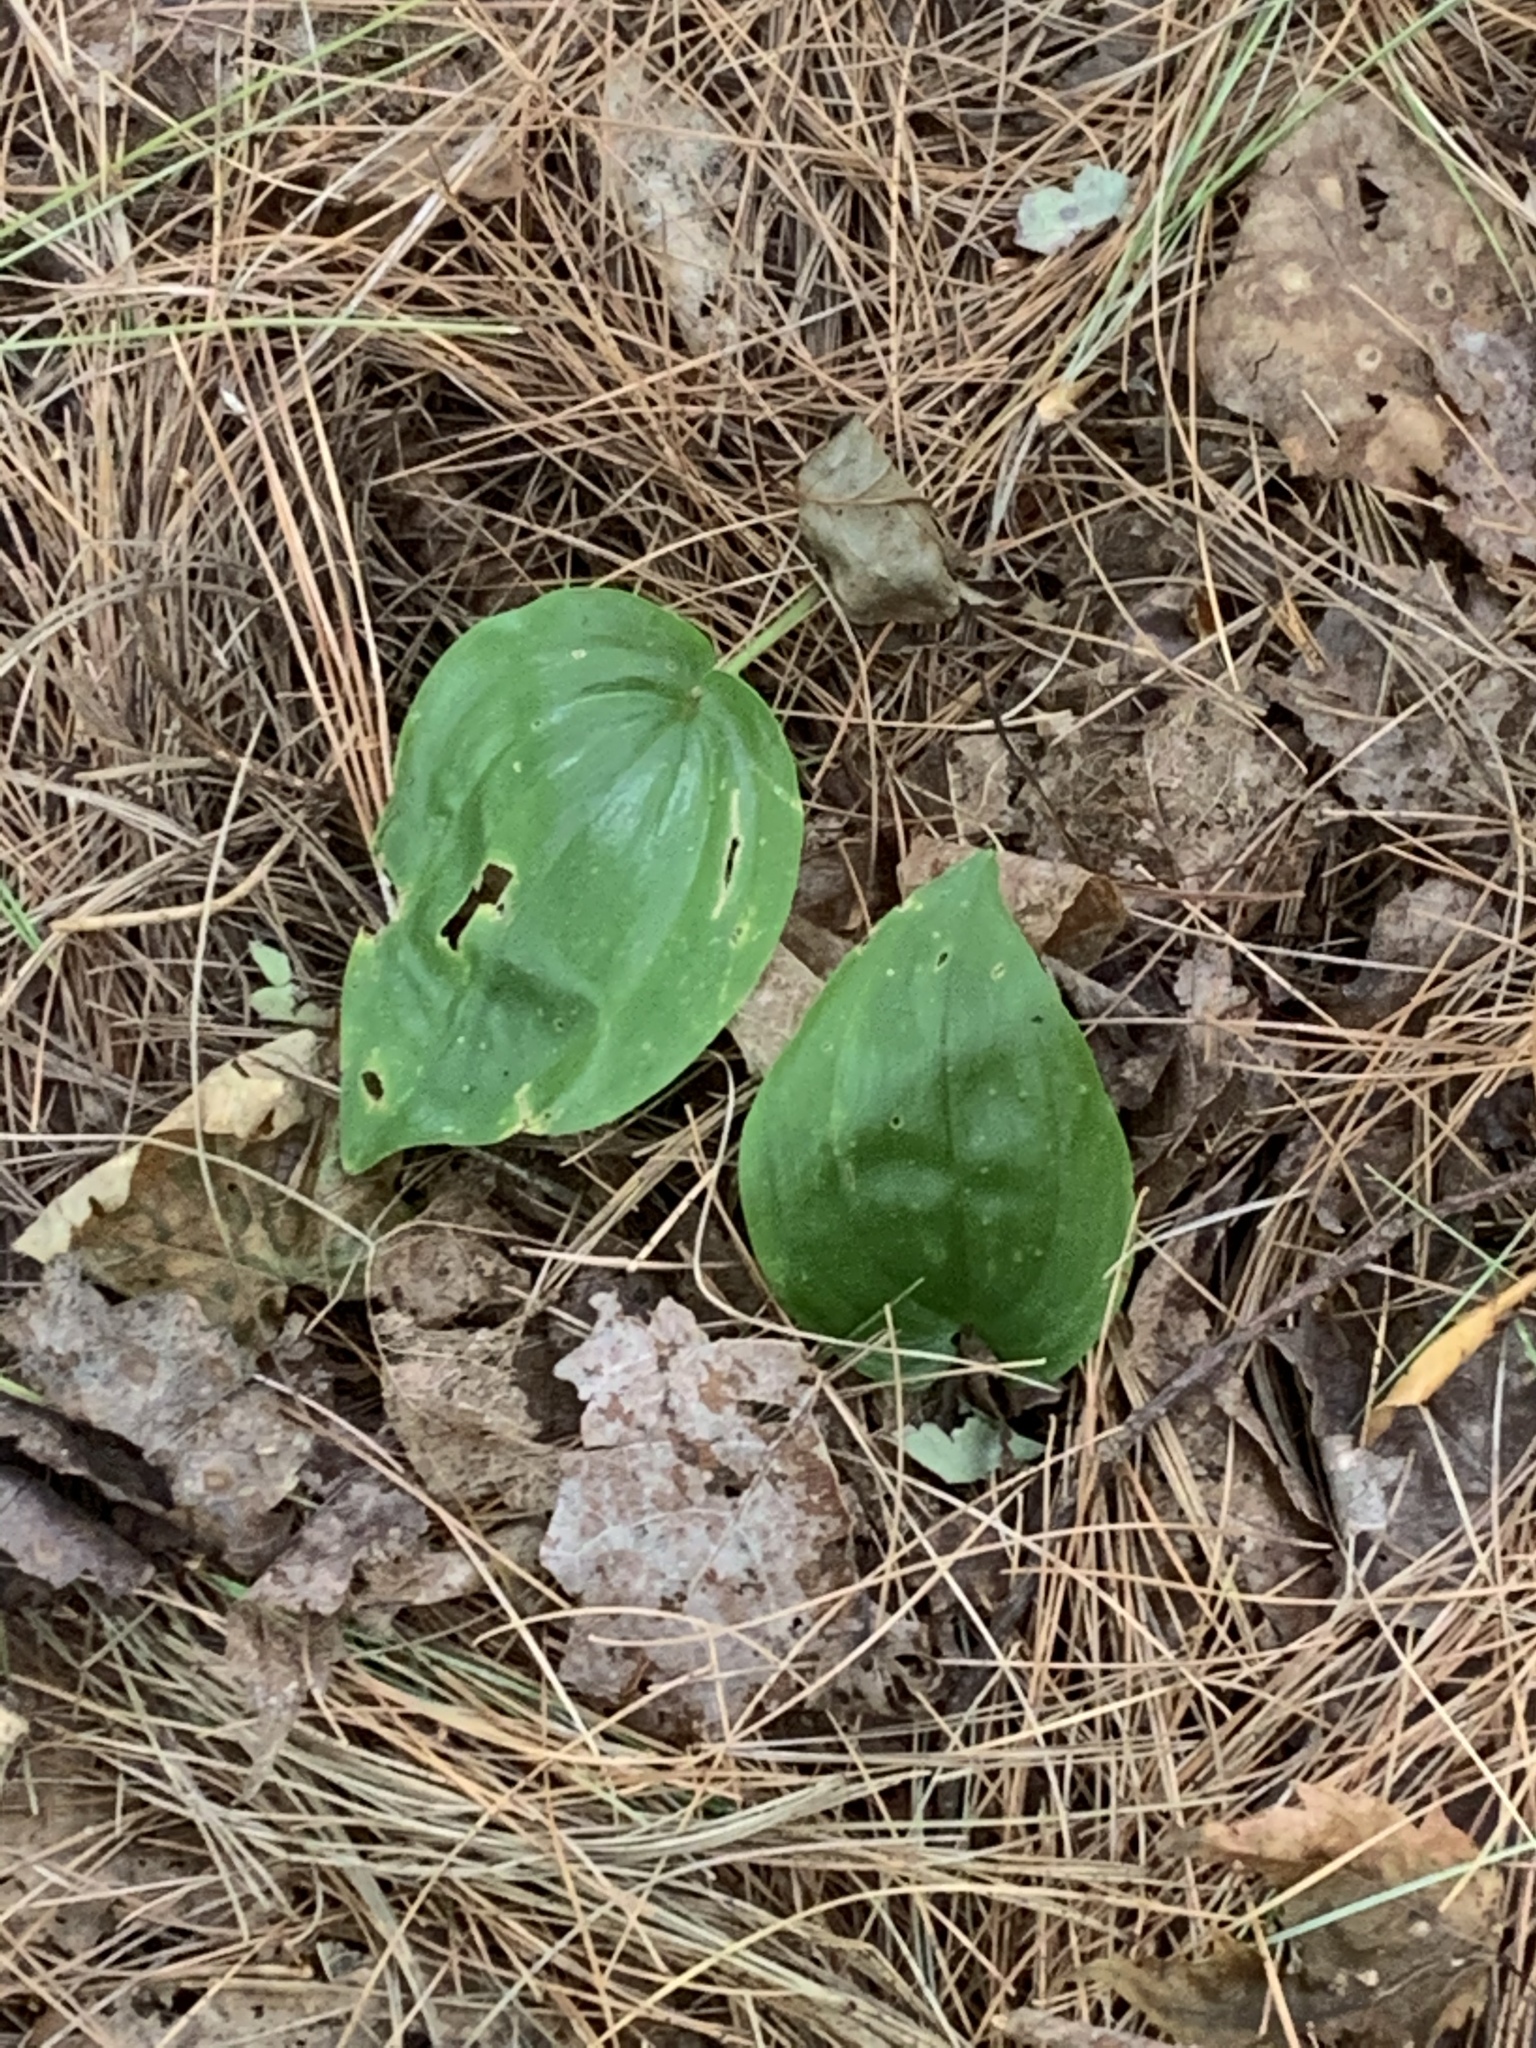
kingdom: Plantae
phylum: Tracheophyta
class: Liliopsida
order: Asparagales
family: Asparagaceae
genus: Maianthemum
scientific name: Maianthemum canadense
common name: False lily-of-the-valley
